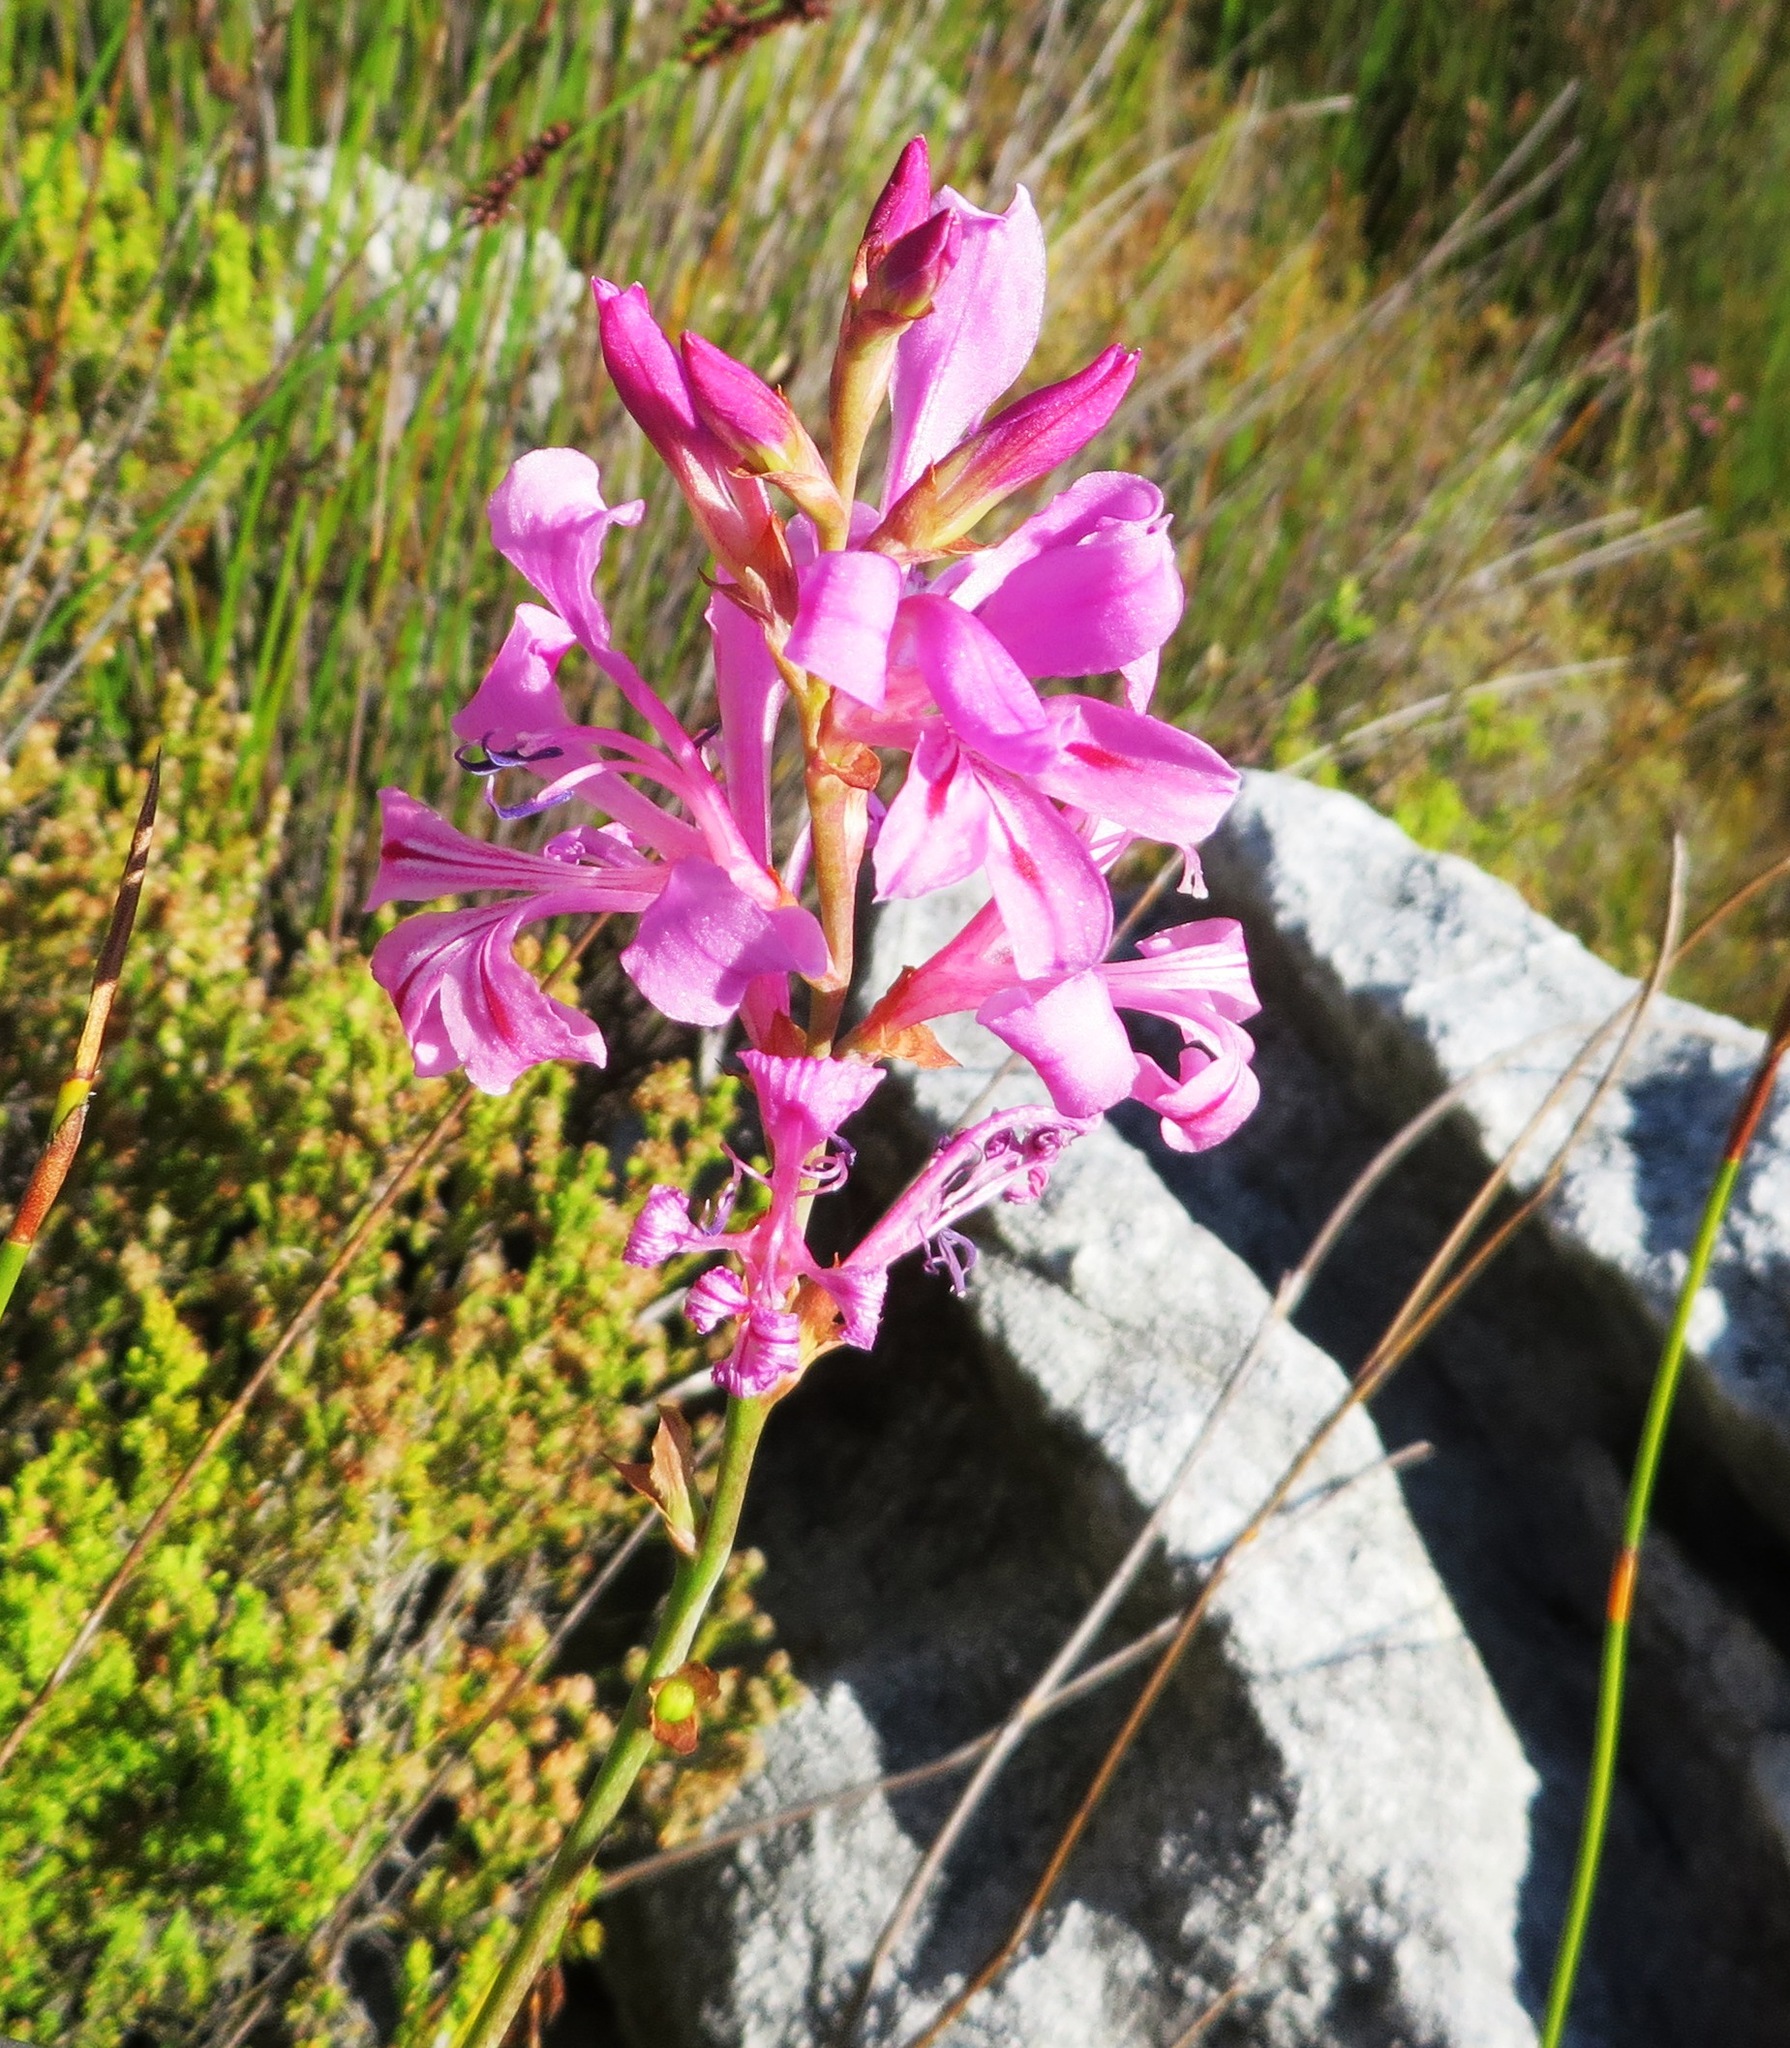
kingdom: Plantae
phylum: Tracheophyta
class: Liliopsida
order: Asparagales
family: Iridaceae
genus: Tritoniopsis
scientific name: Tritoniopsis lata
